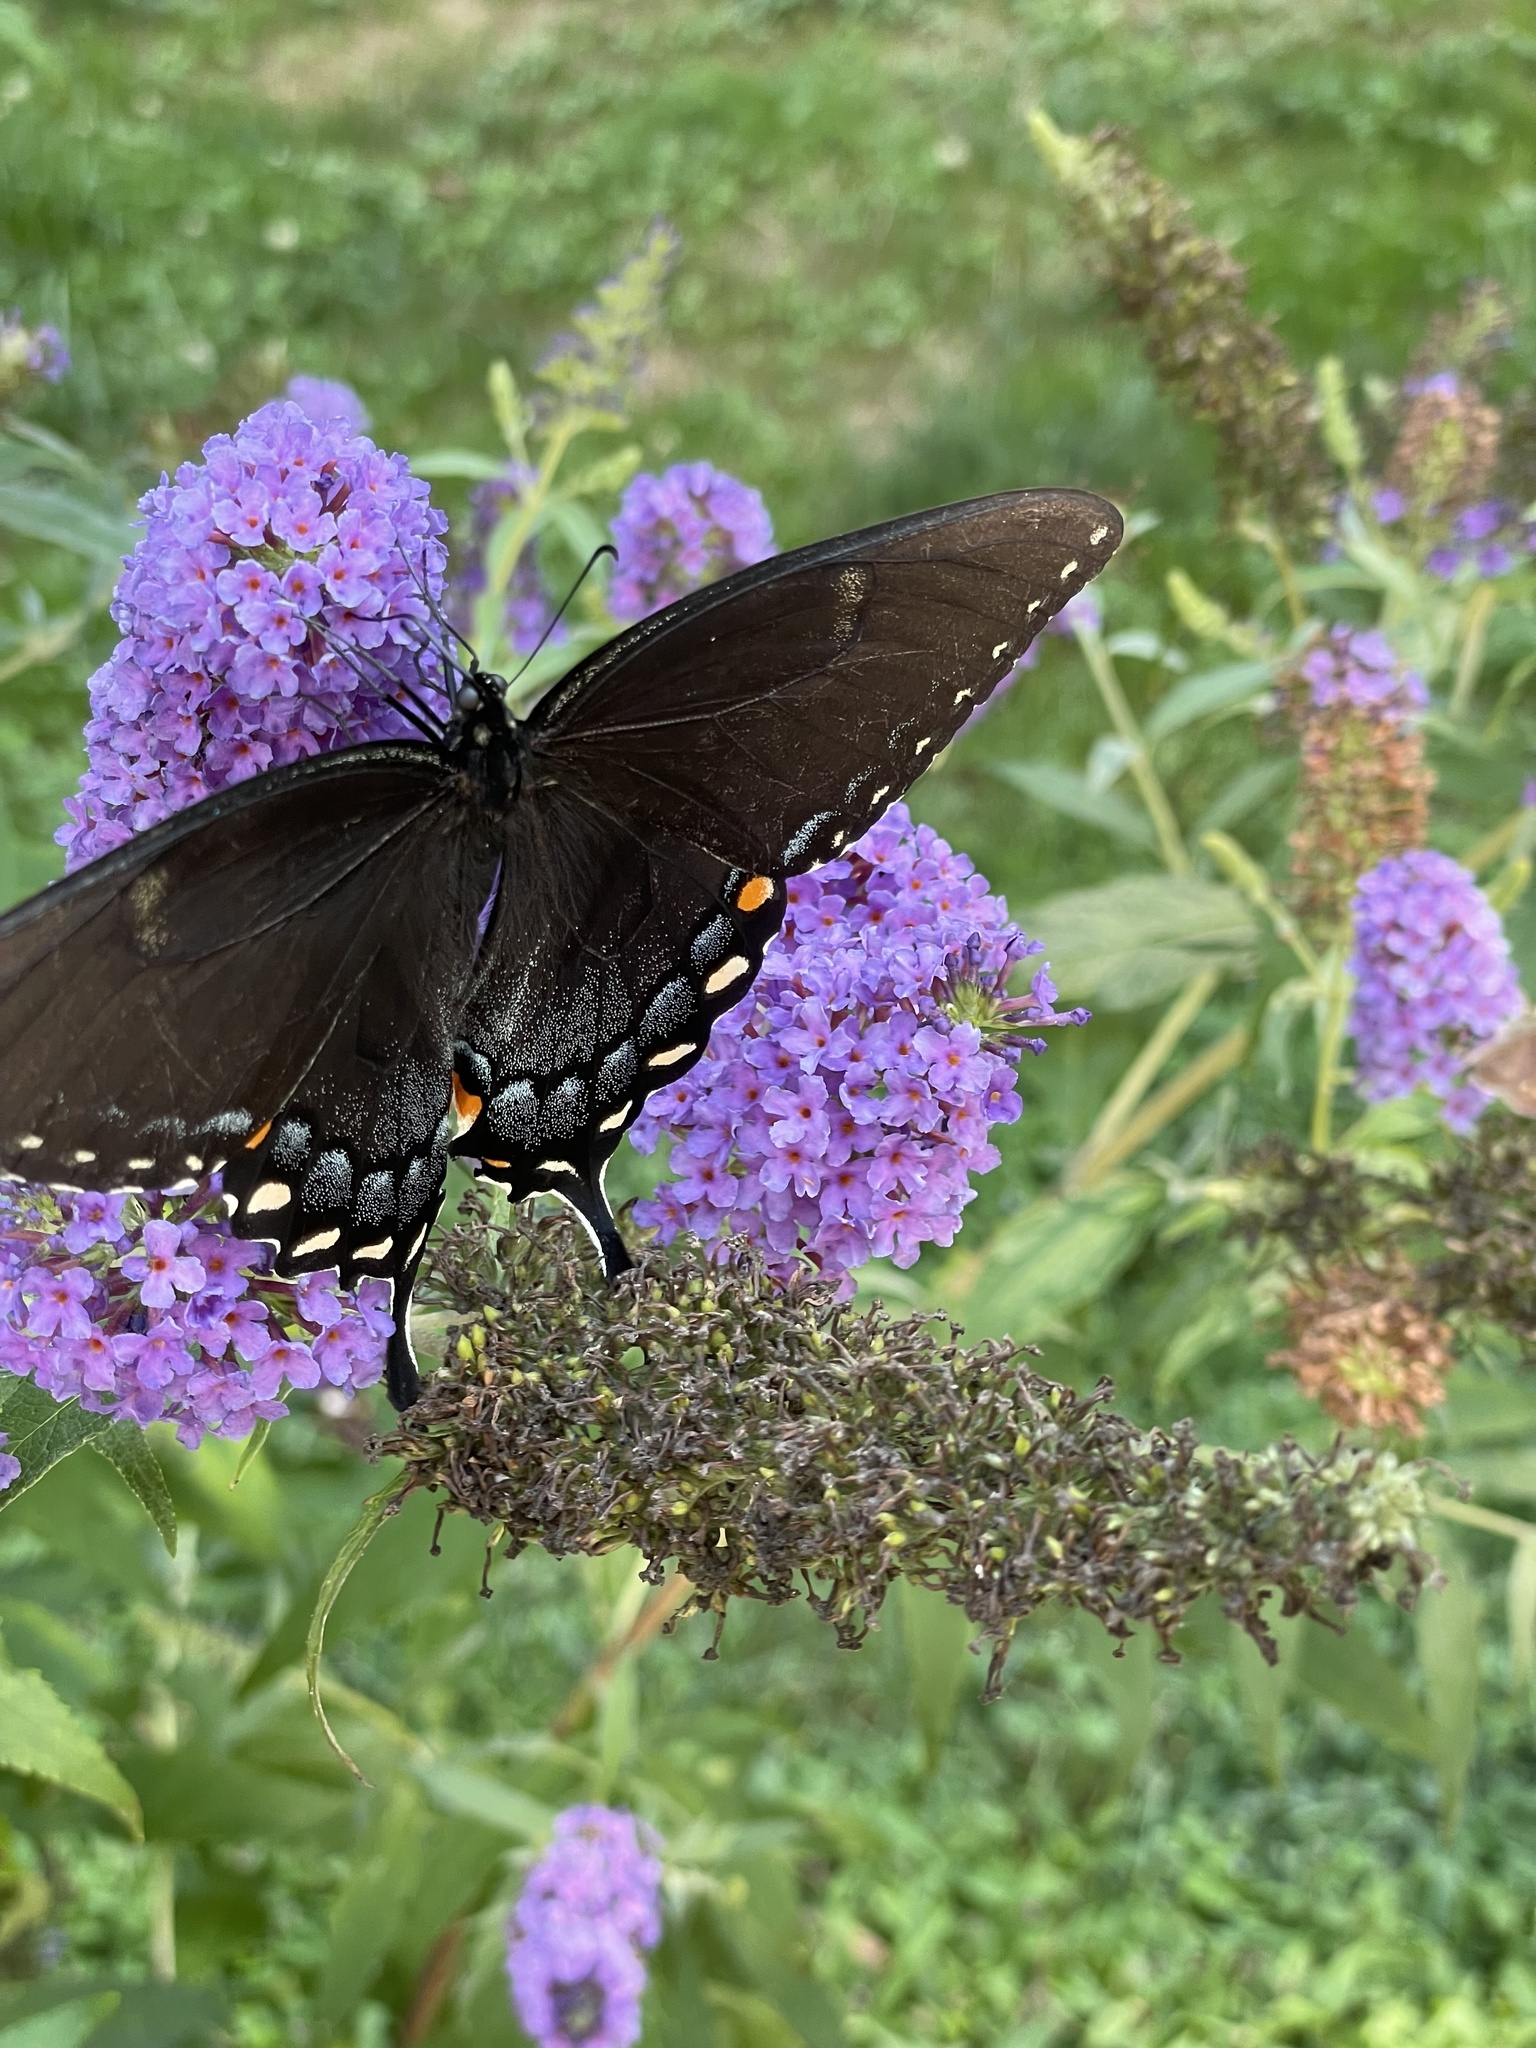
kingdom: Animalia
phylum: Arthropoda
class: Insecta
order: Lepidoptera
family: Papilionidae
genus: Papilio
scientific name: Papilio glaucus
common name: Tiger swallowtail
